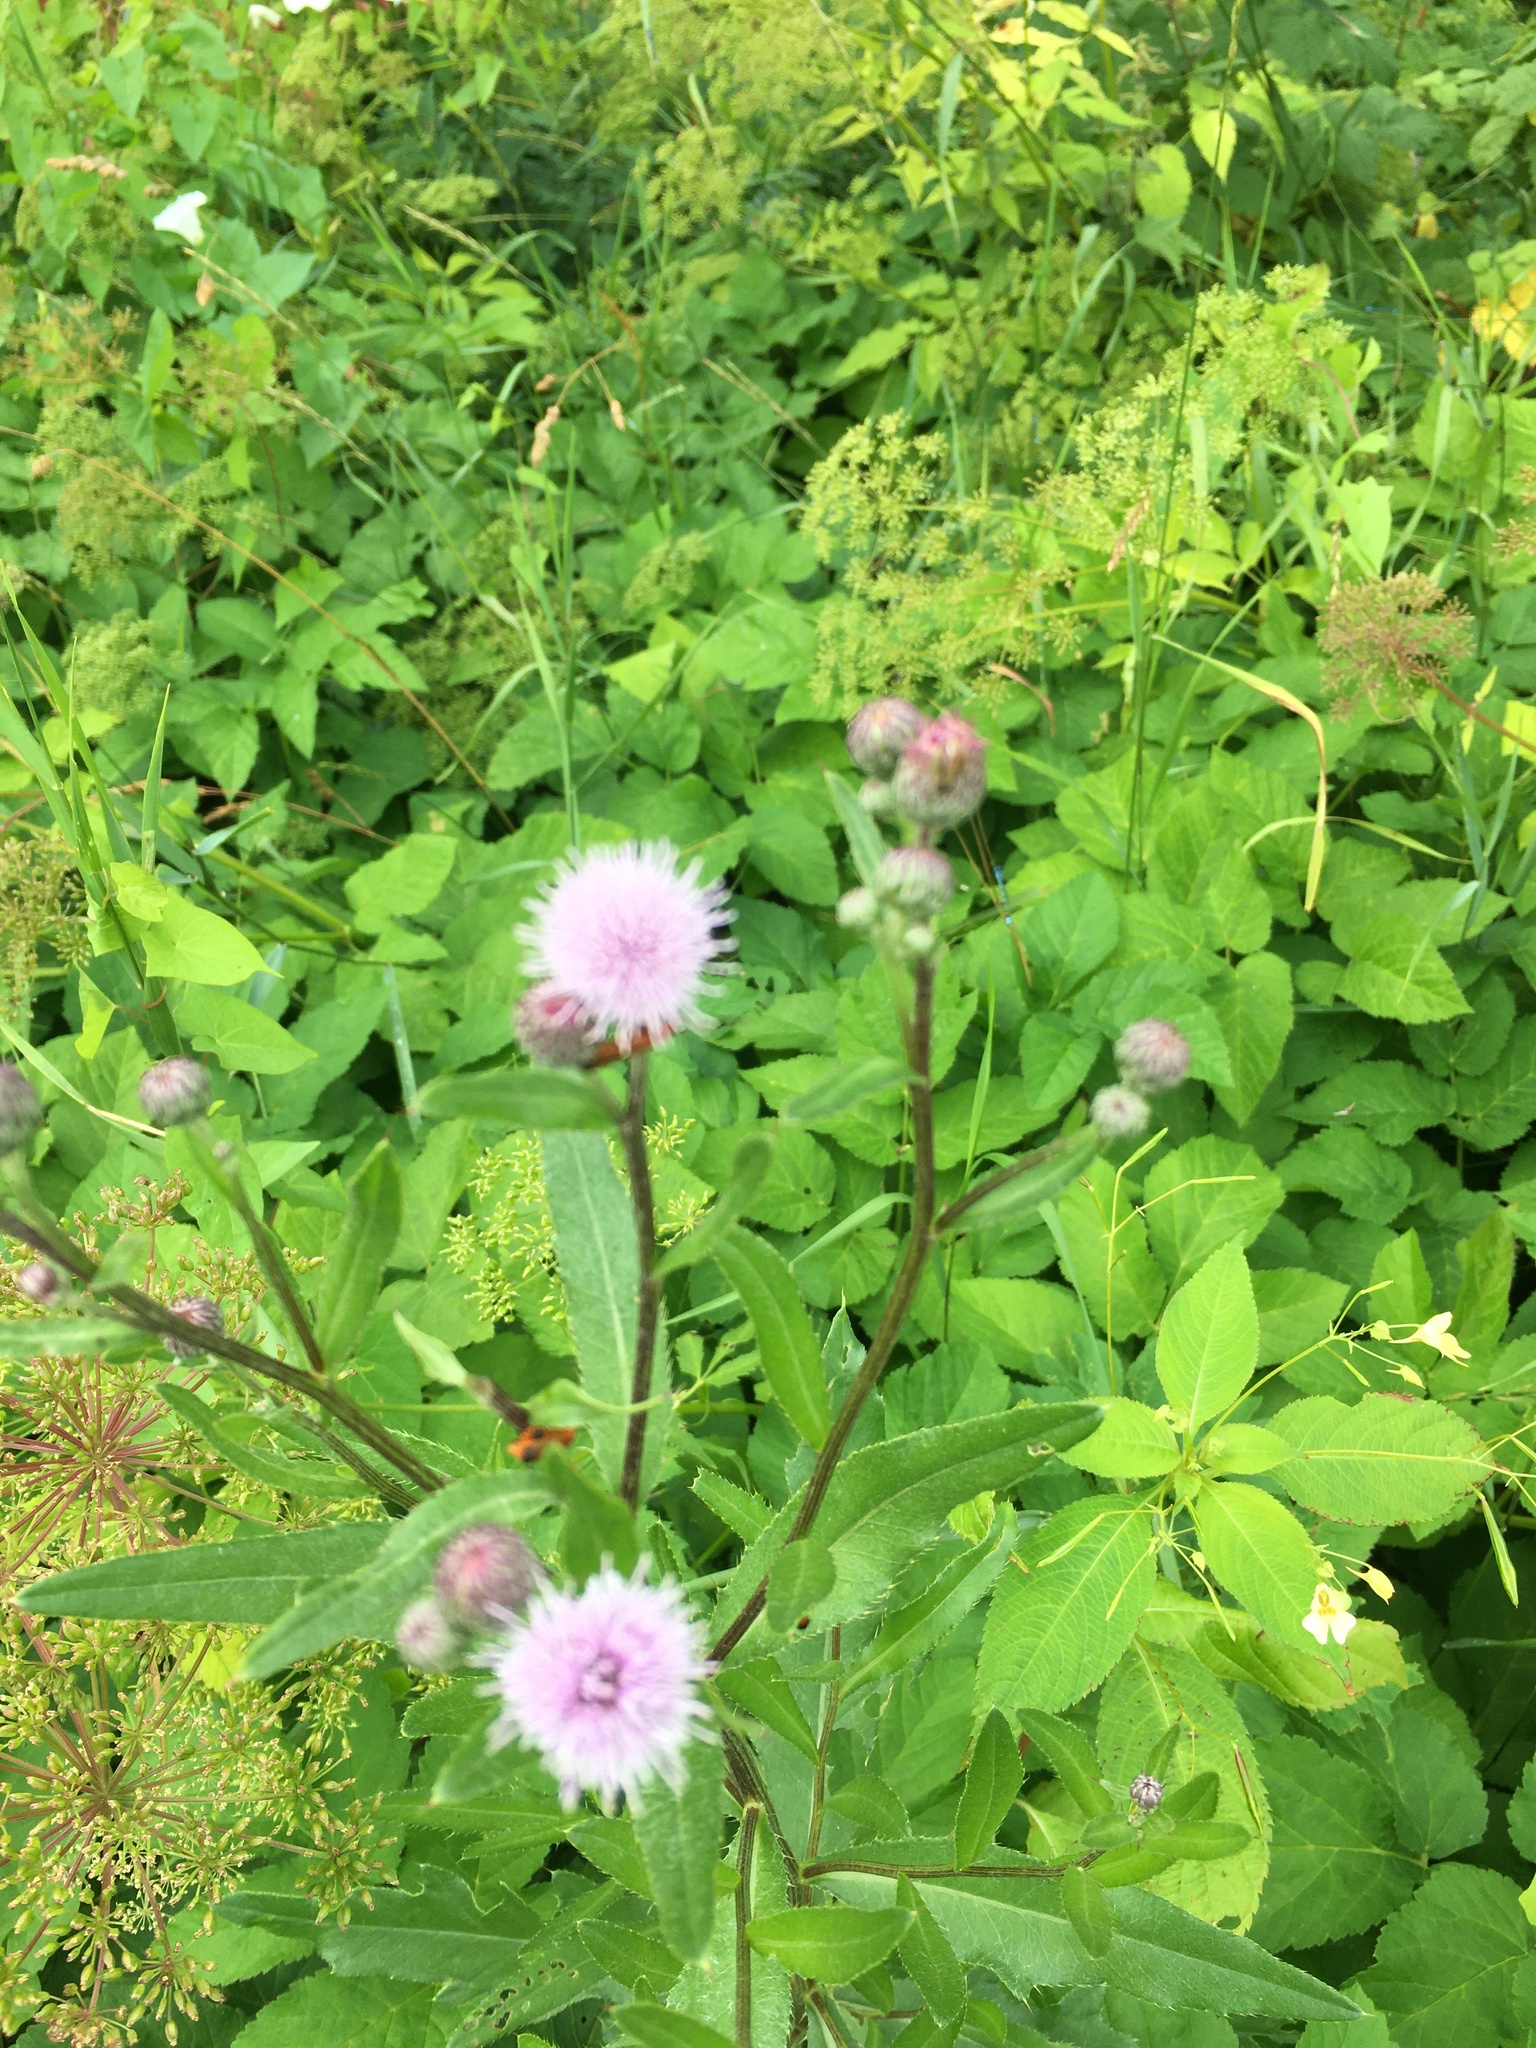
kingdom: Plantae
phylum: Tracheophyta
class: Magnoliopsida
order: Asterales
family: Asteraceae
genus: Cirsium
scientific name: Cirsium arvense
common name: Creeping thistle
